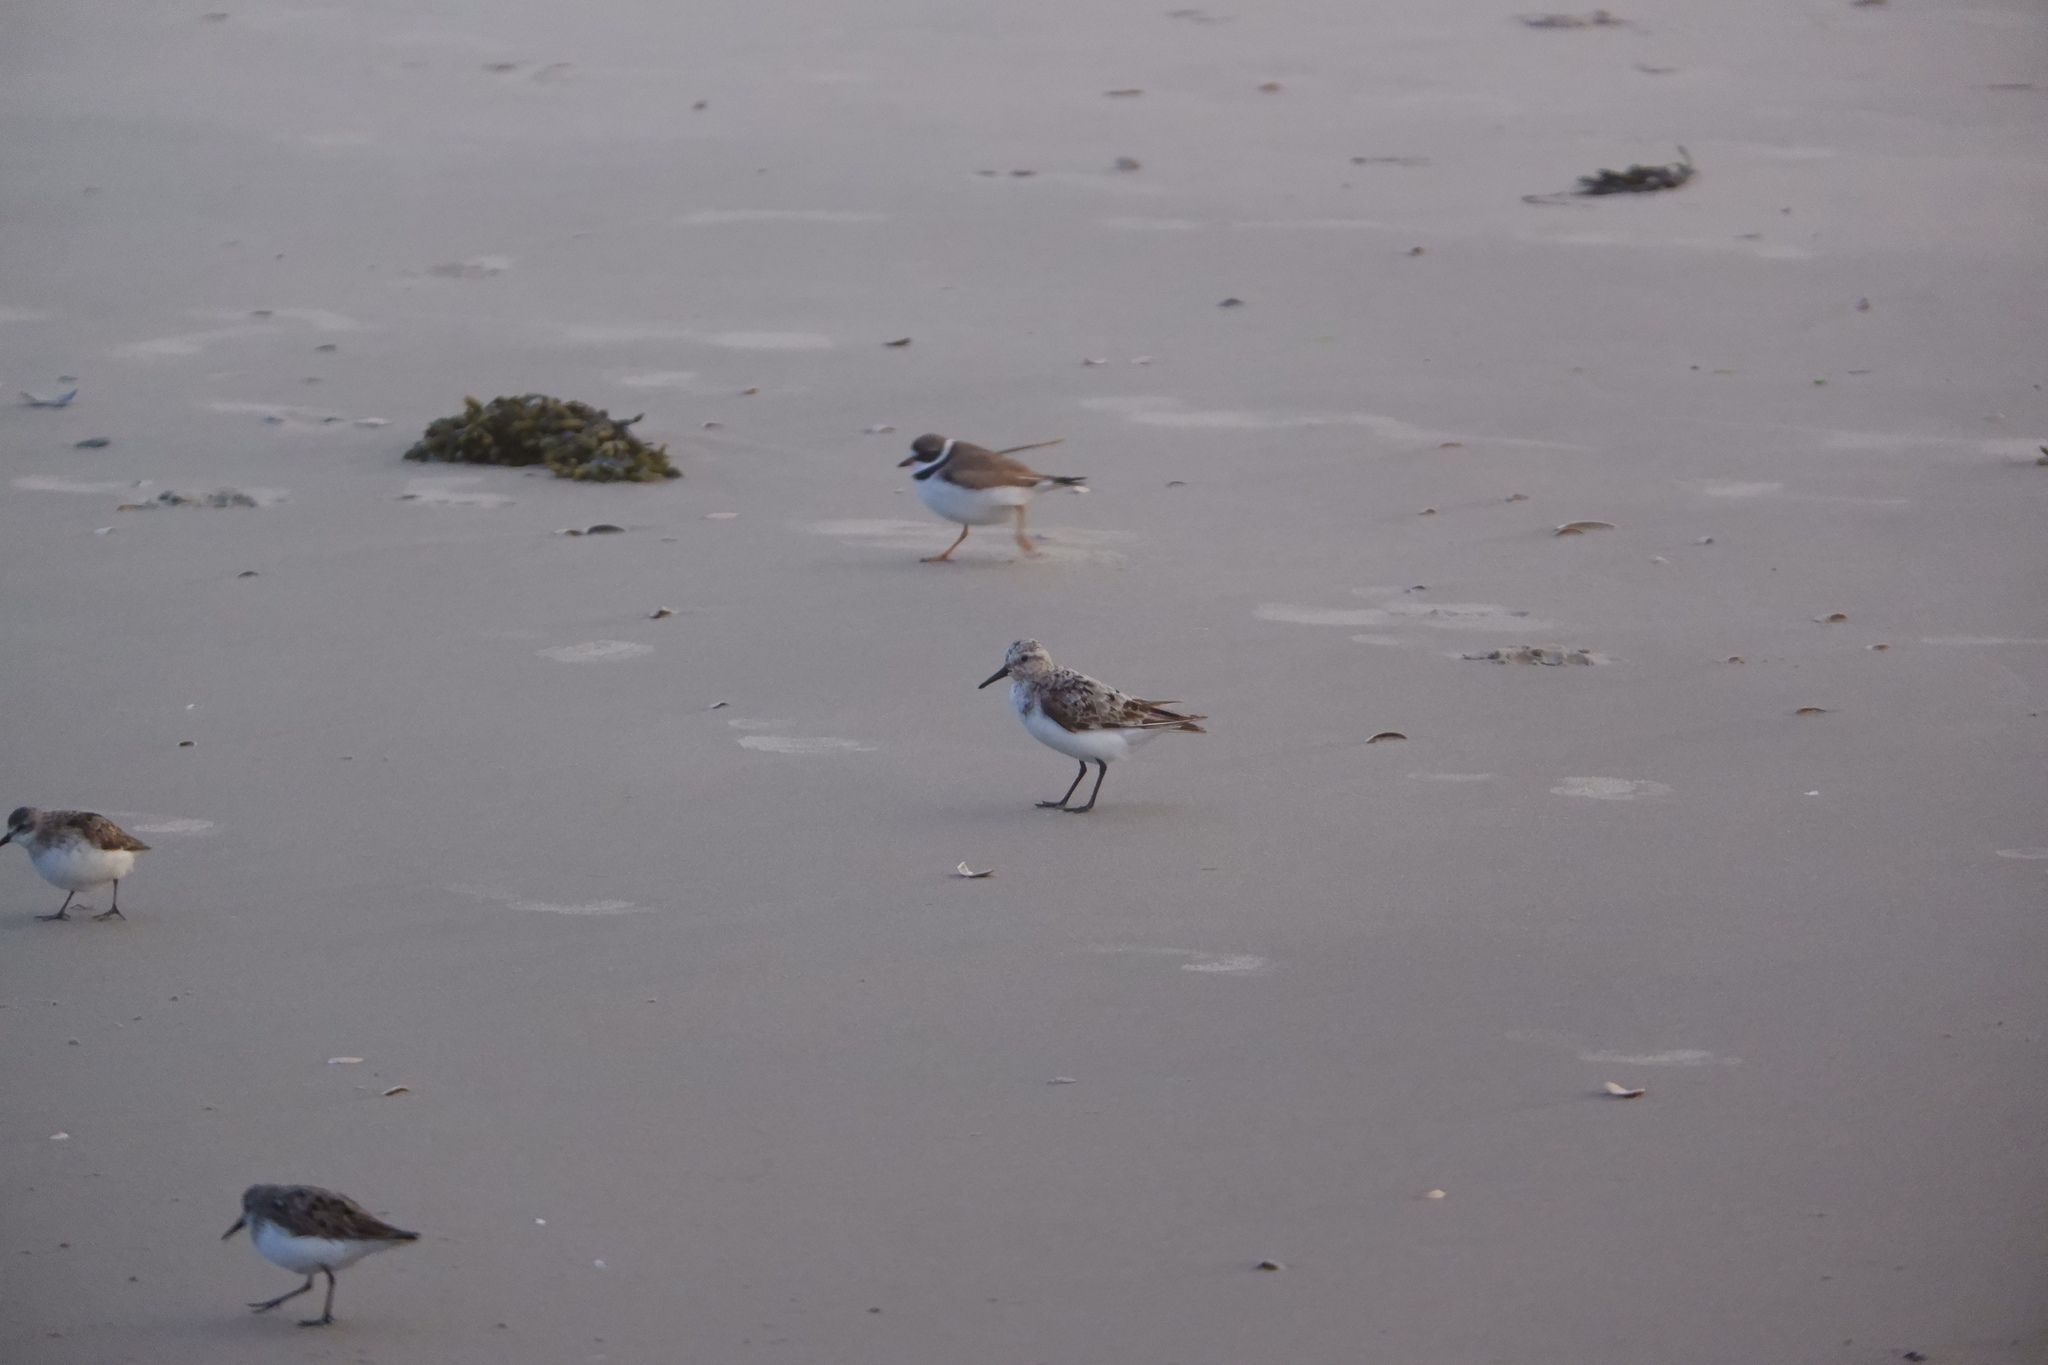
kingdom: Animalia
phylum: Chordata
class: Aves
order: Charadriiformes
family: Scolopacidae
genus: Calidris
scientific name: Calidris alba
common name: Sanderling
